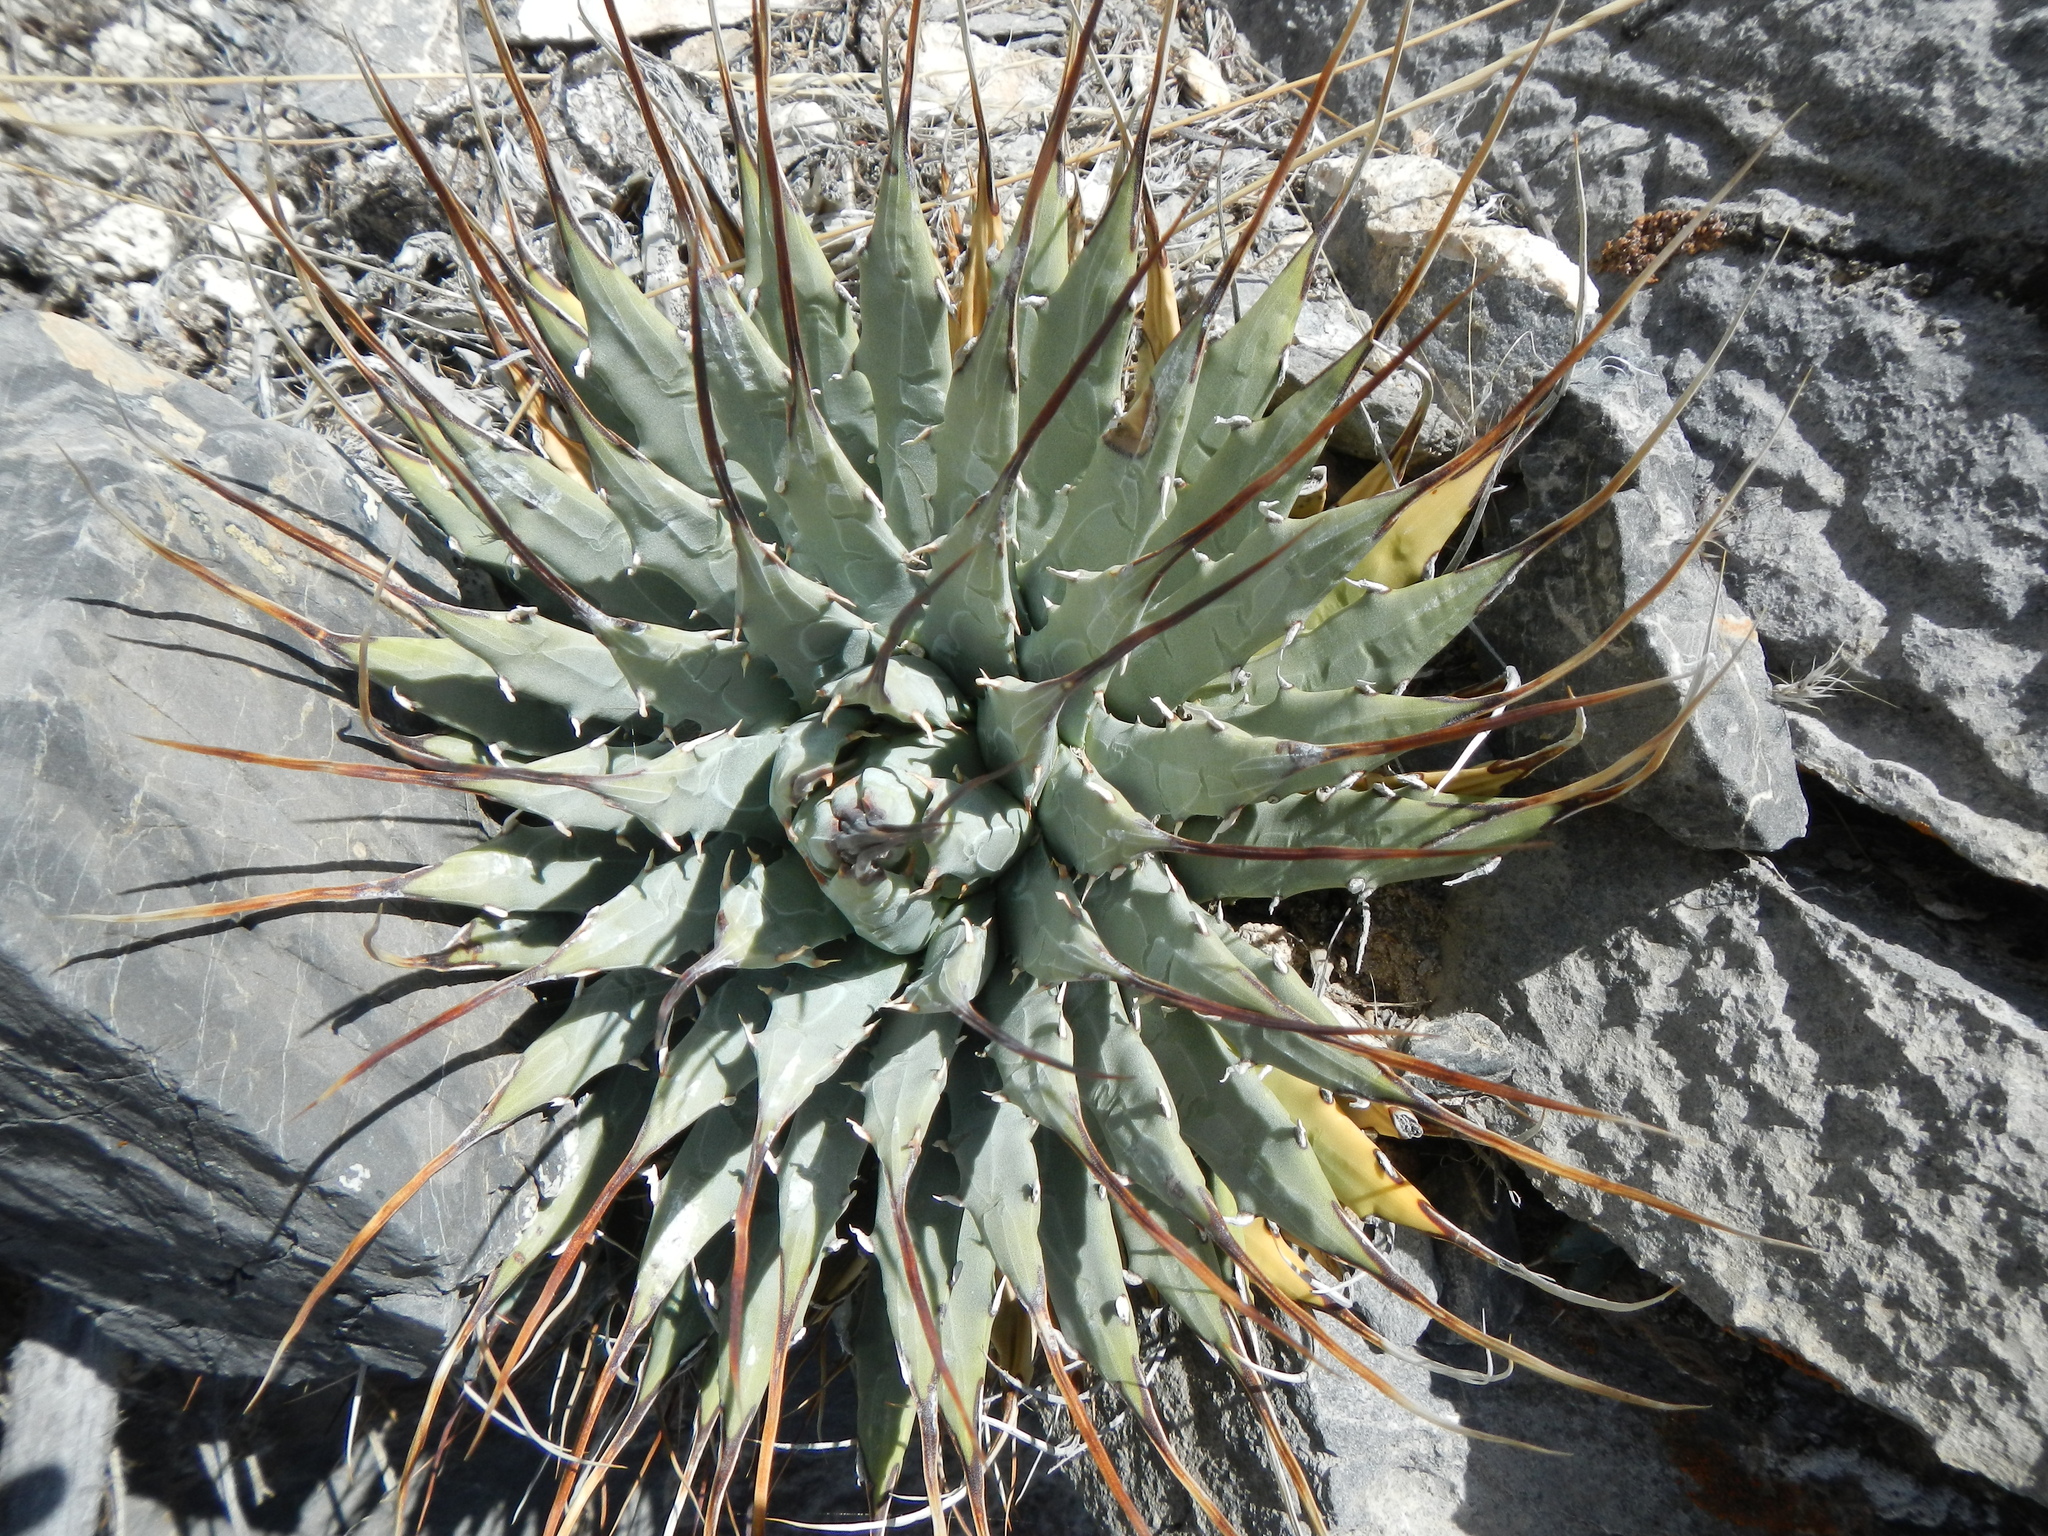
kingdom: Plantae
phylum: Tracheophyta
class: Liliopsida
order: Asparagales
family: Asparagaceae
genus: Agave
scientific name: Agave utahensis
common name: Utah agave
